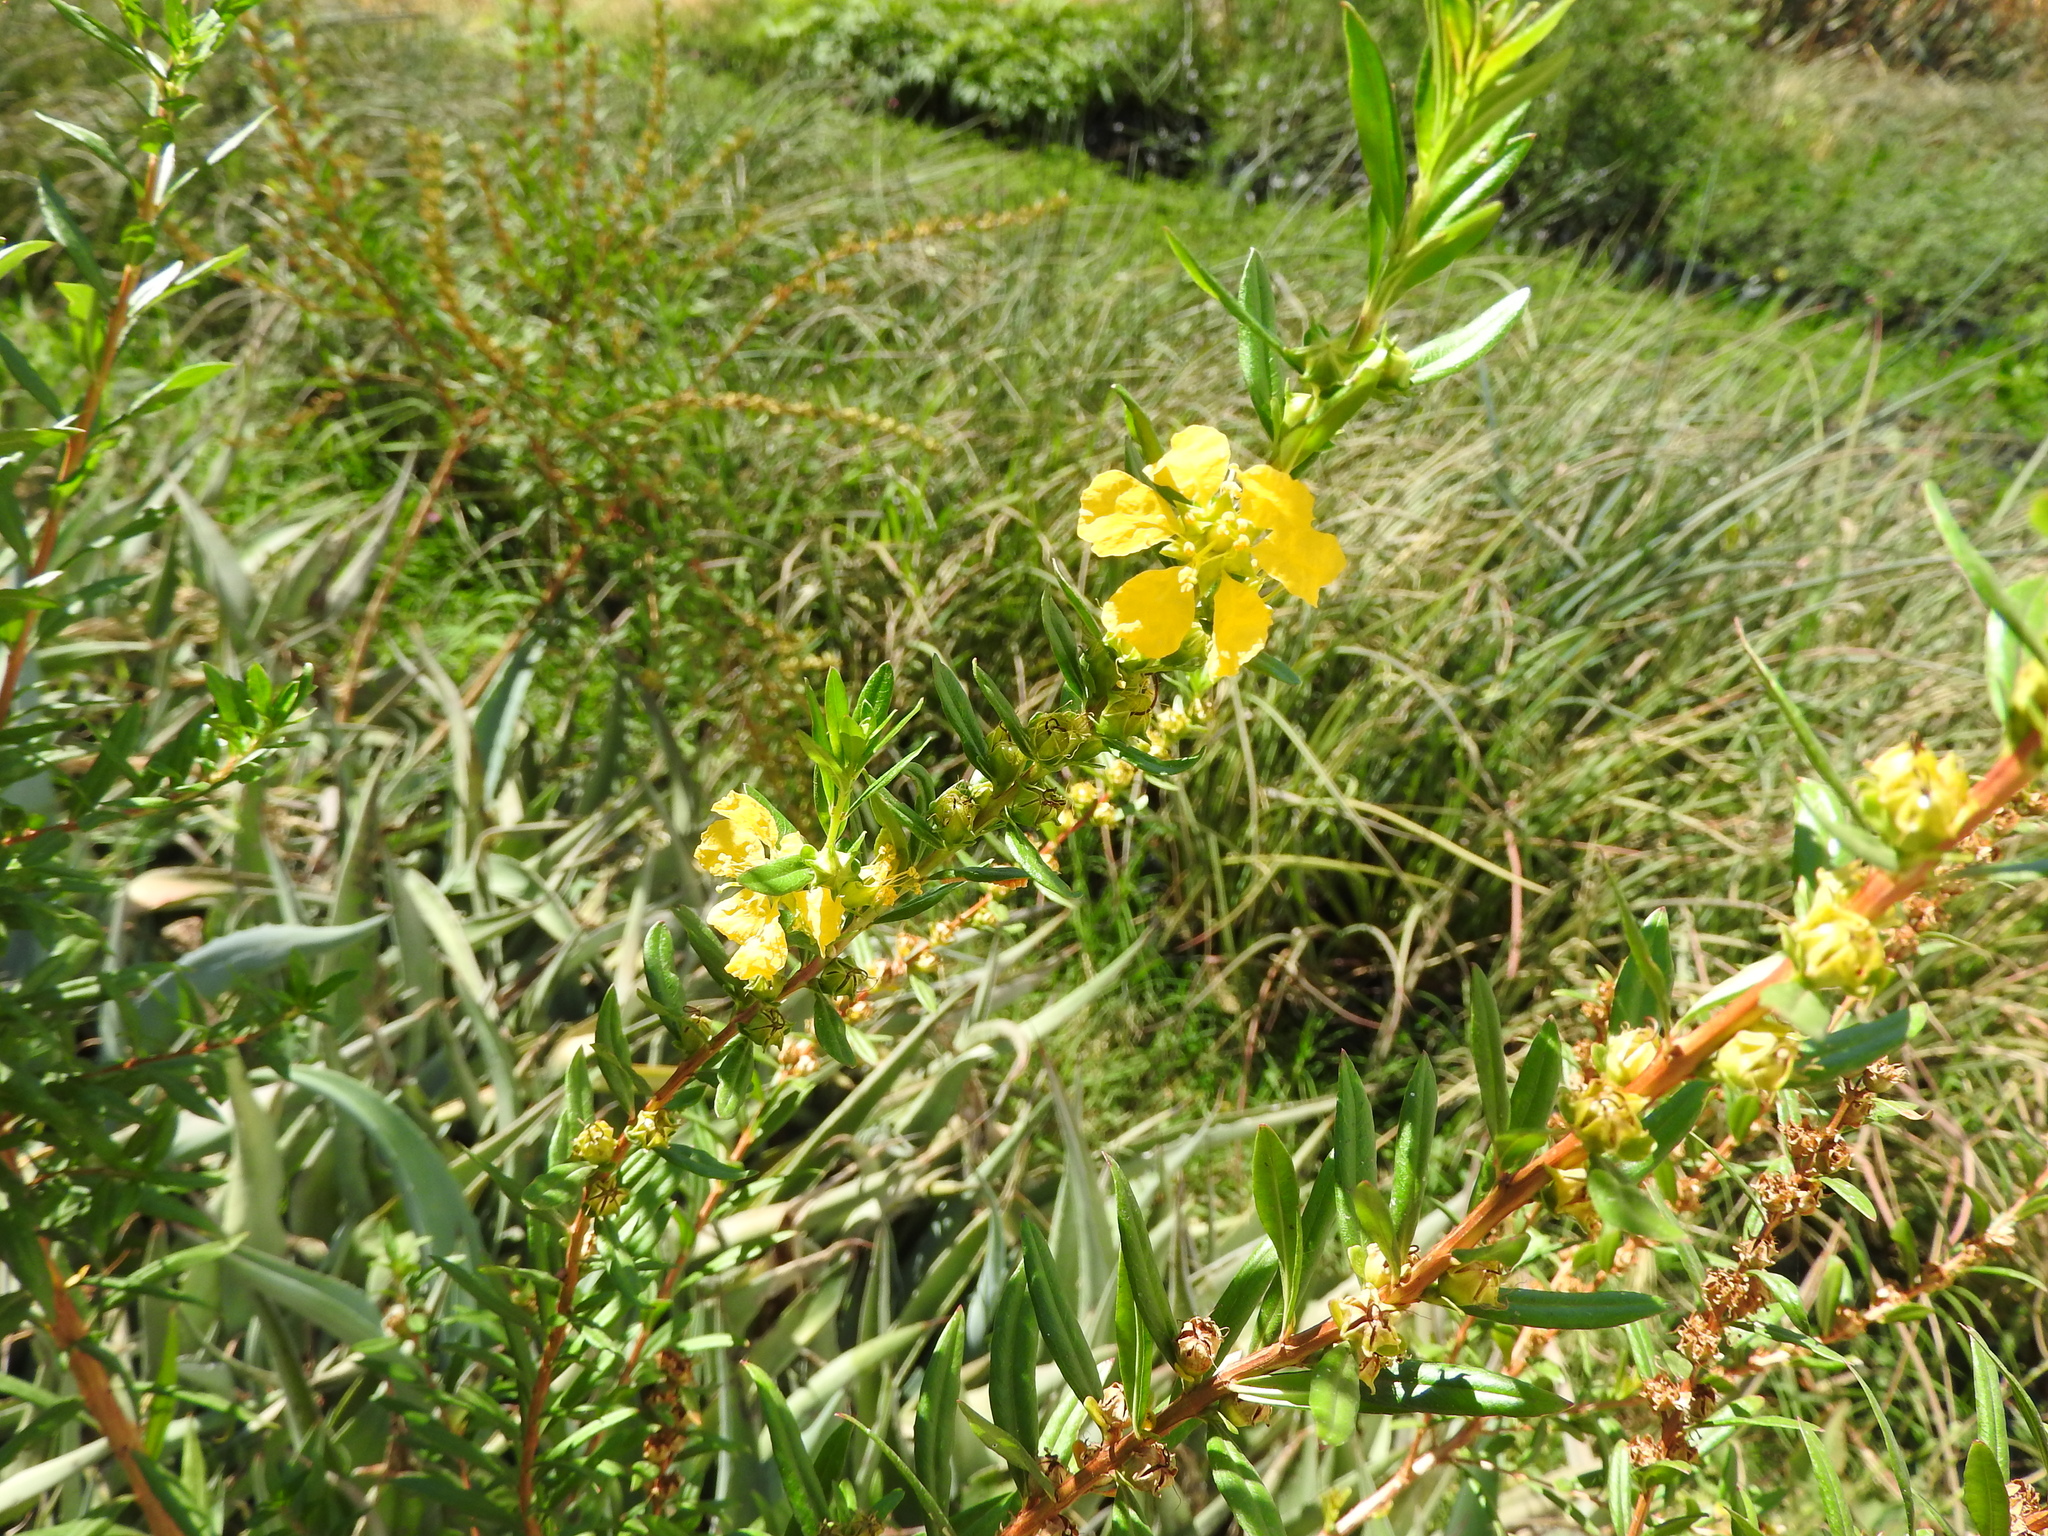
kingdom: Plantae
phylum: Tracheophyta
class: Magnoliopsida
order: Myrtales
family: Lythraceae
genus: Heimia
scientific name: Heimia salicifolia
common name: Willow-leaf heimia
